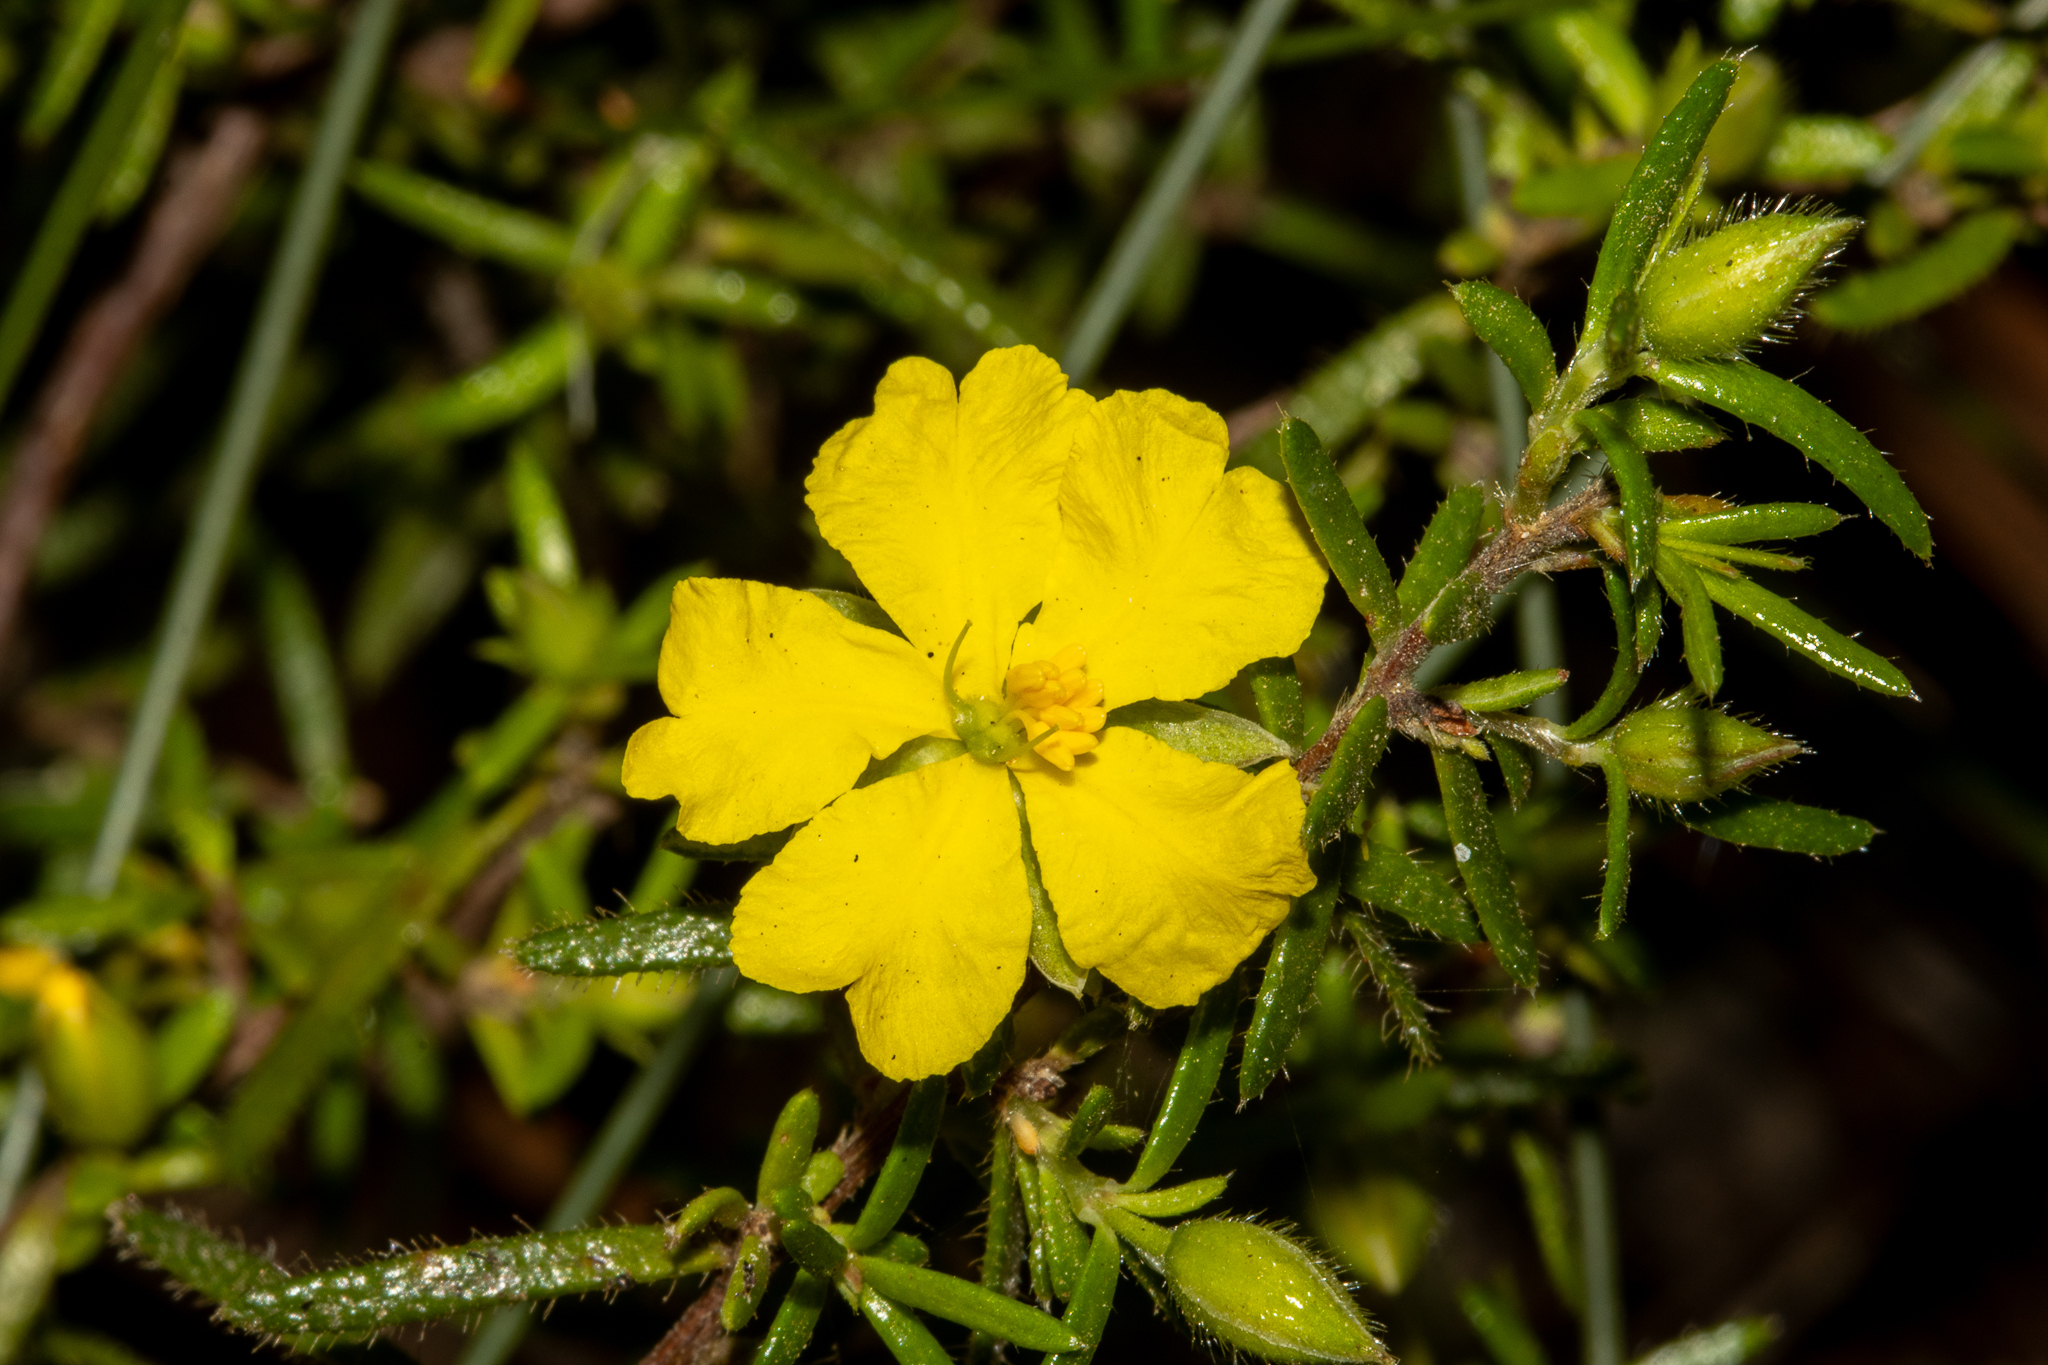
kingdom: Plantae
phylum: Tracheophyta
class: Magnoliopsida
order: Dilleniales
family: Dilleniaceae
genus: Hibbertia
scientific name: Hibbertia riparia
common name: Erect guinea-flower
